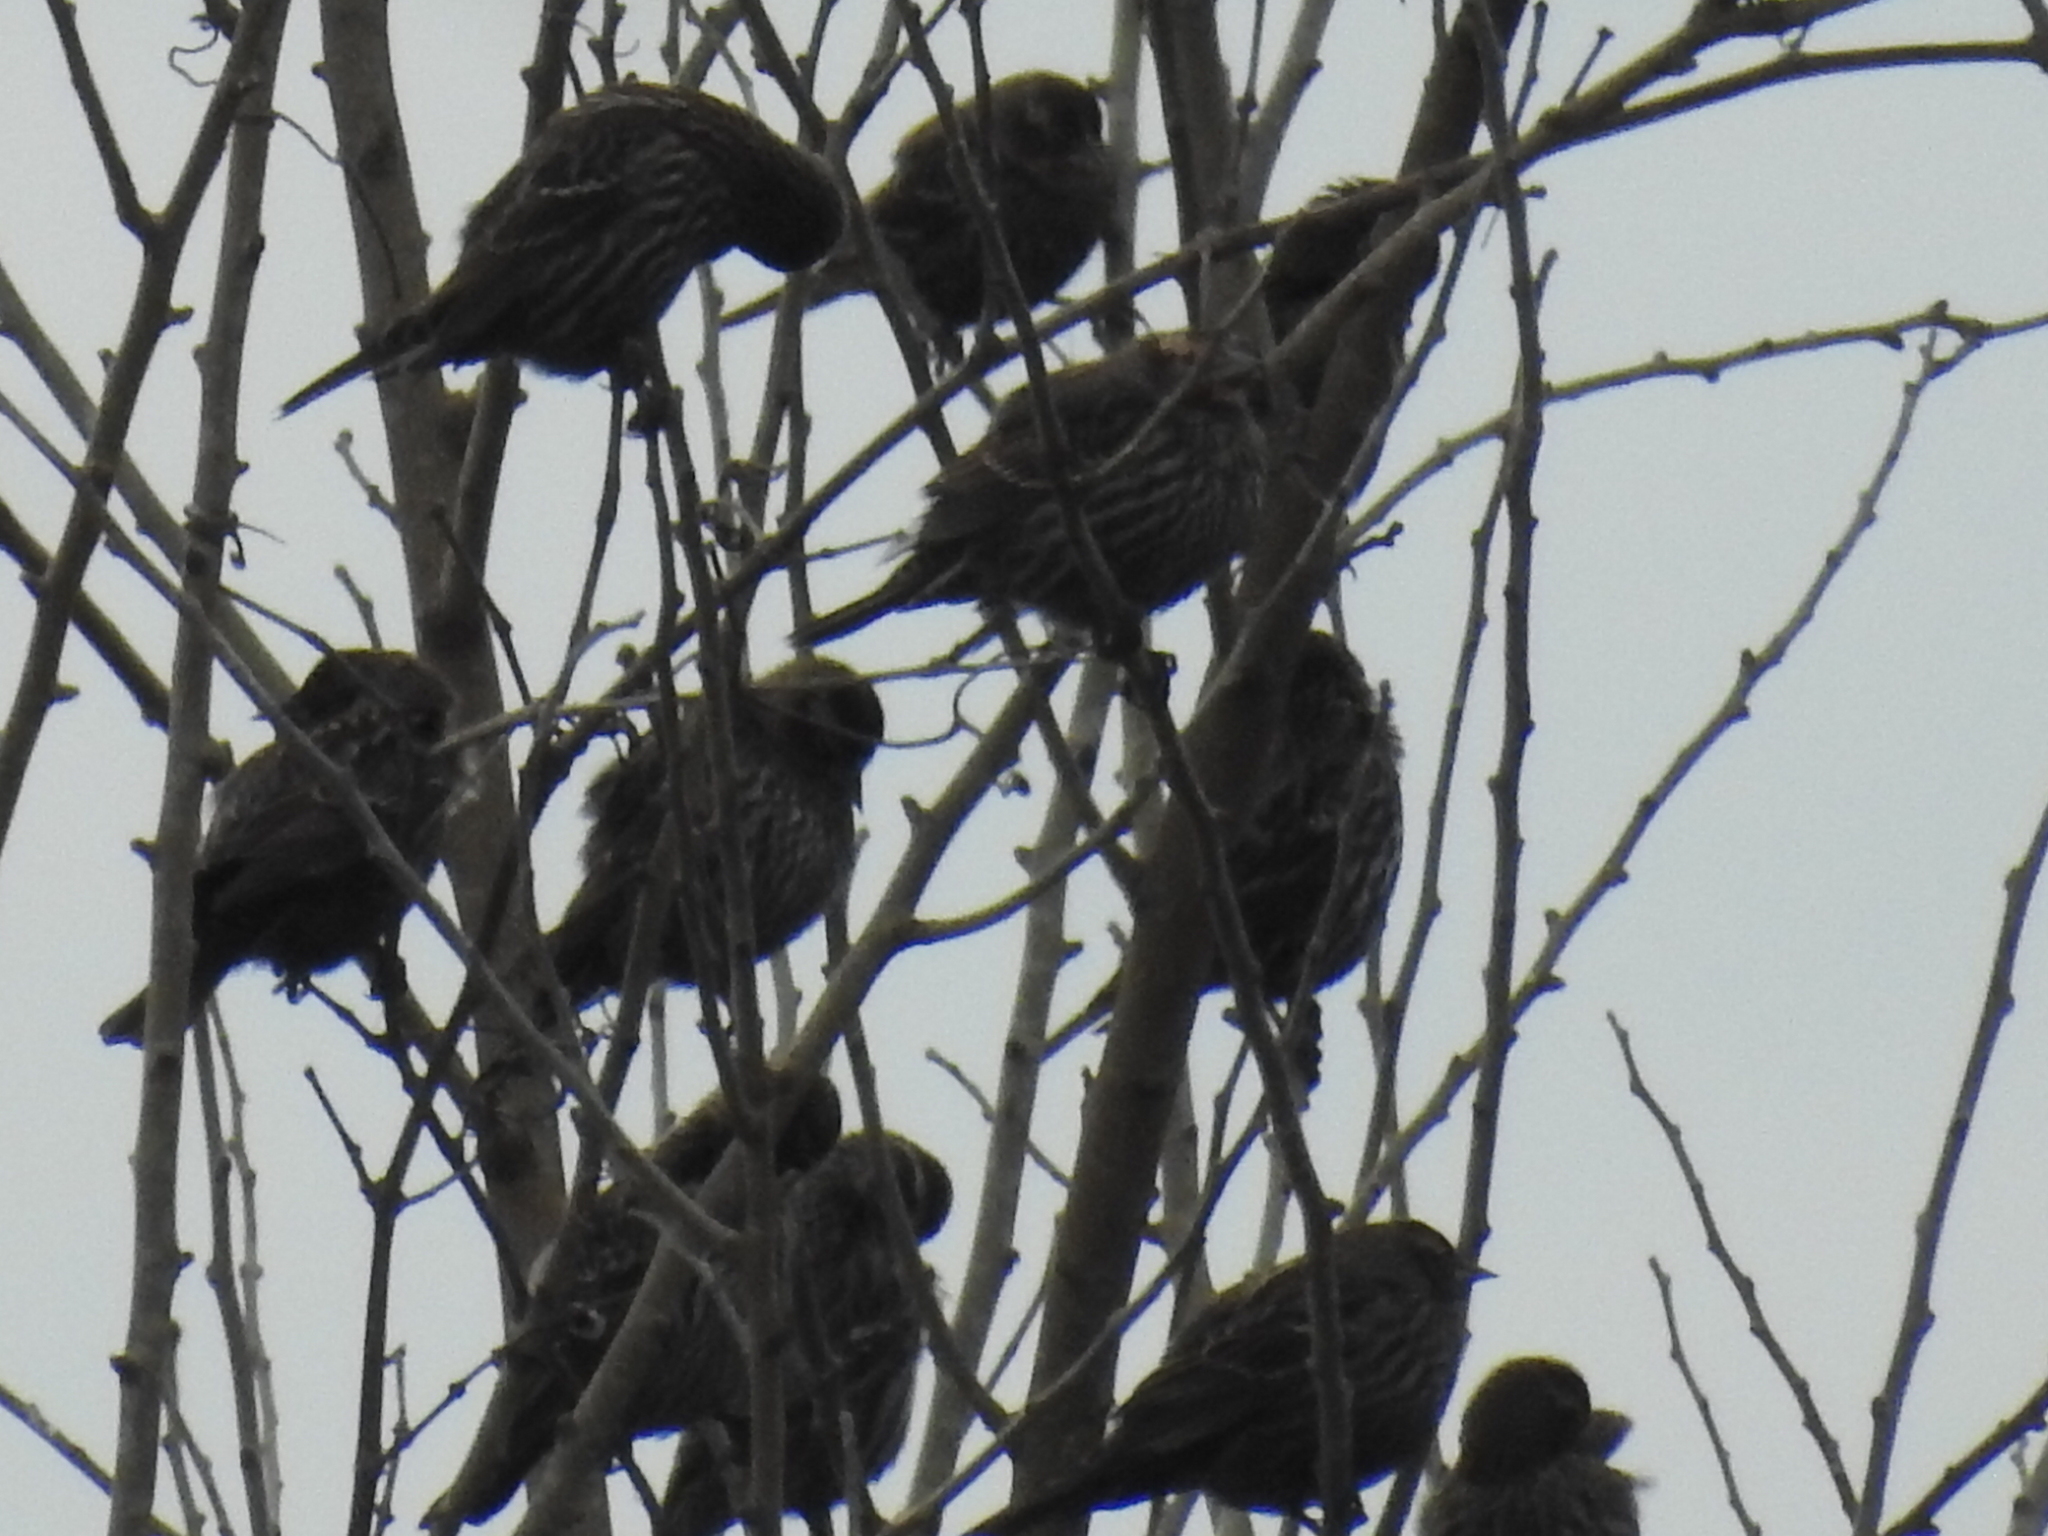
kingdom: Animalia
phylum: Chordata
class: Aves
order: Passeriformes
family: Icteridae
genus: Agelaius
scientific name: Agelaius phoeniceus
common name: Red-winged blackbird
